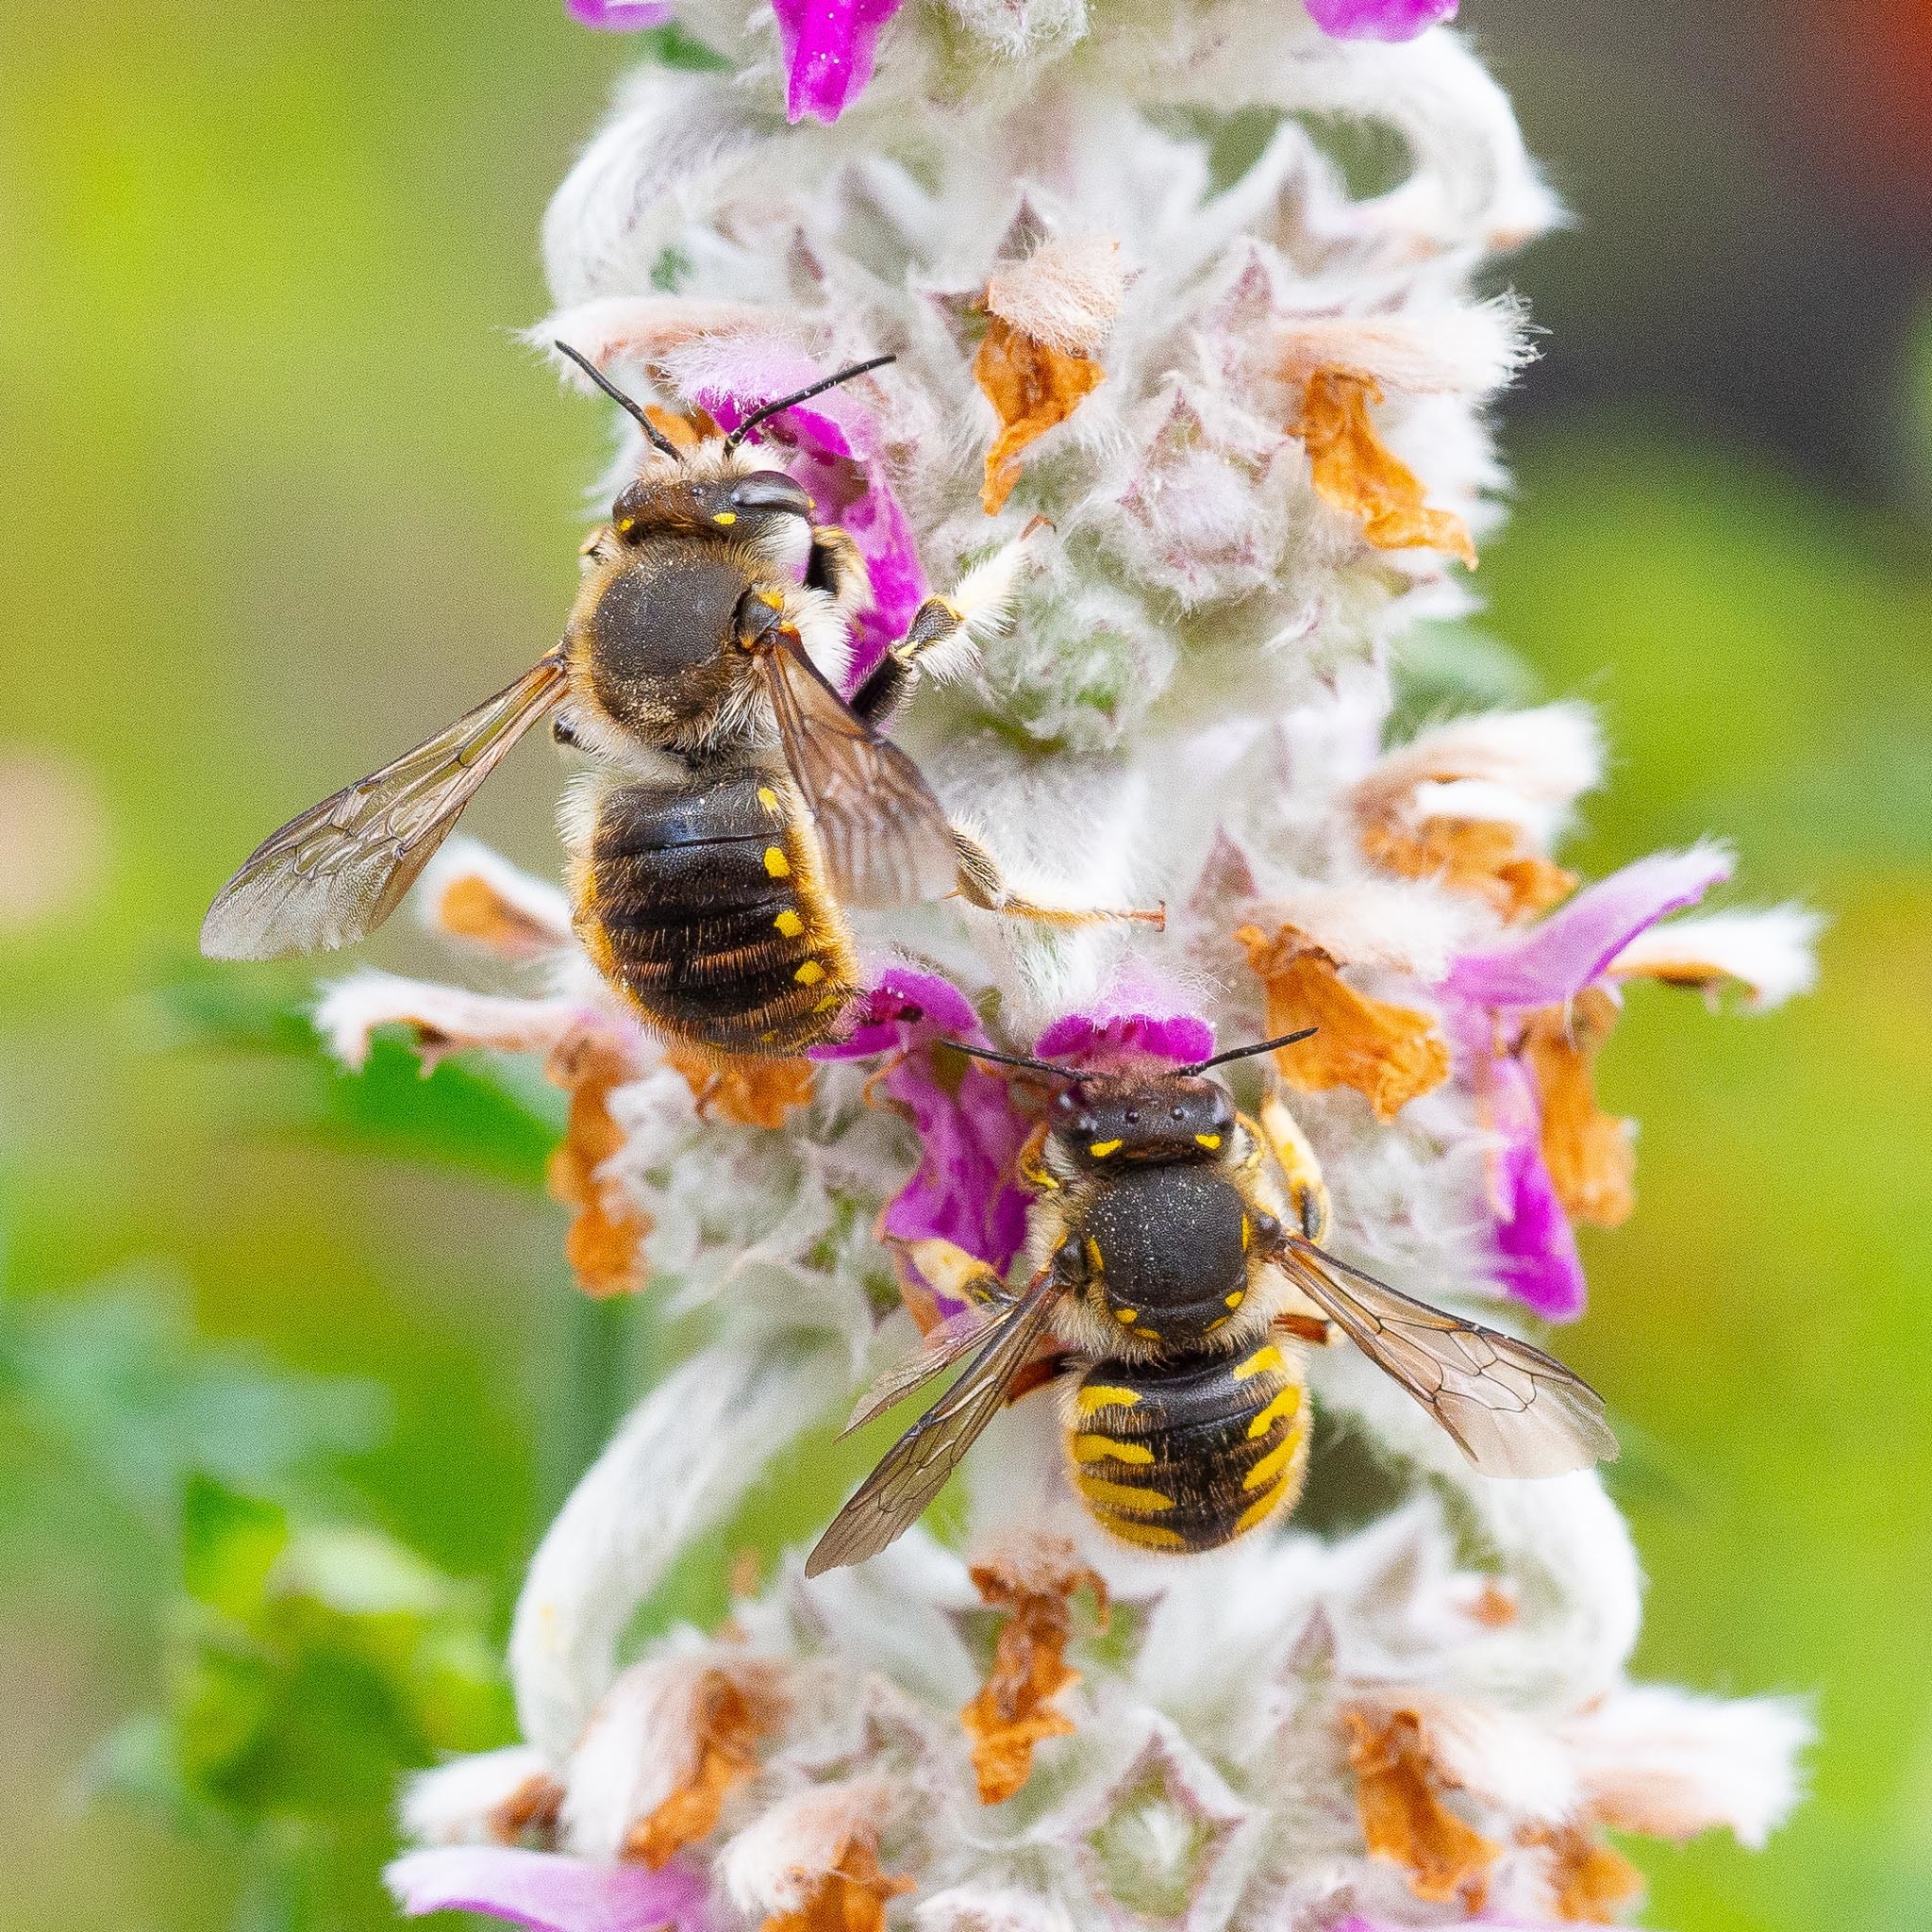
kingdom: Animalia
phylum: Arthropoda
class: Insecta
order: Hymenoptera
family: Megachilidae
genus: Anthidium
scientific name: Anthidium manicatum
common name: Wool carder bee
